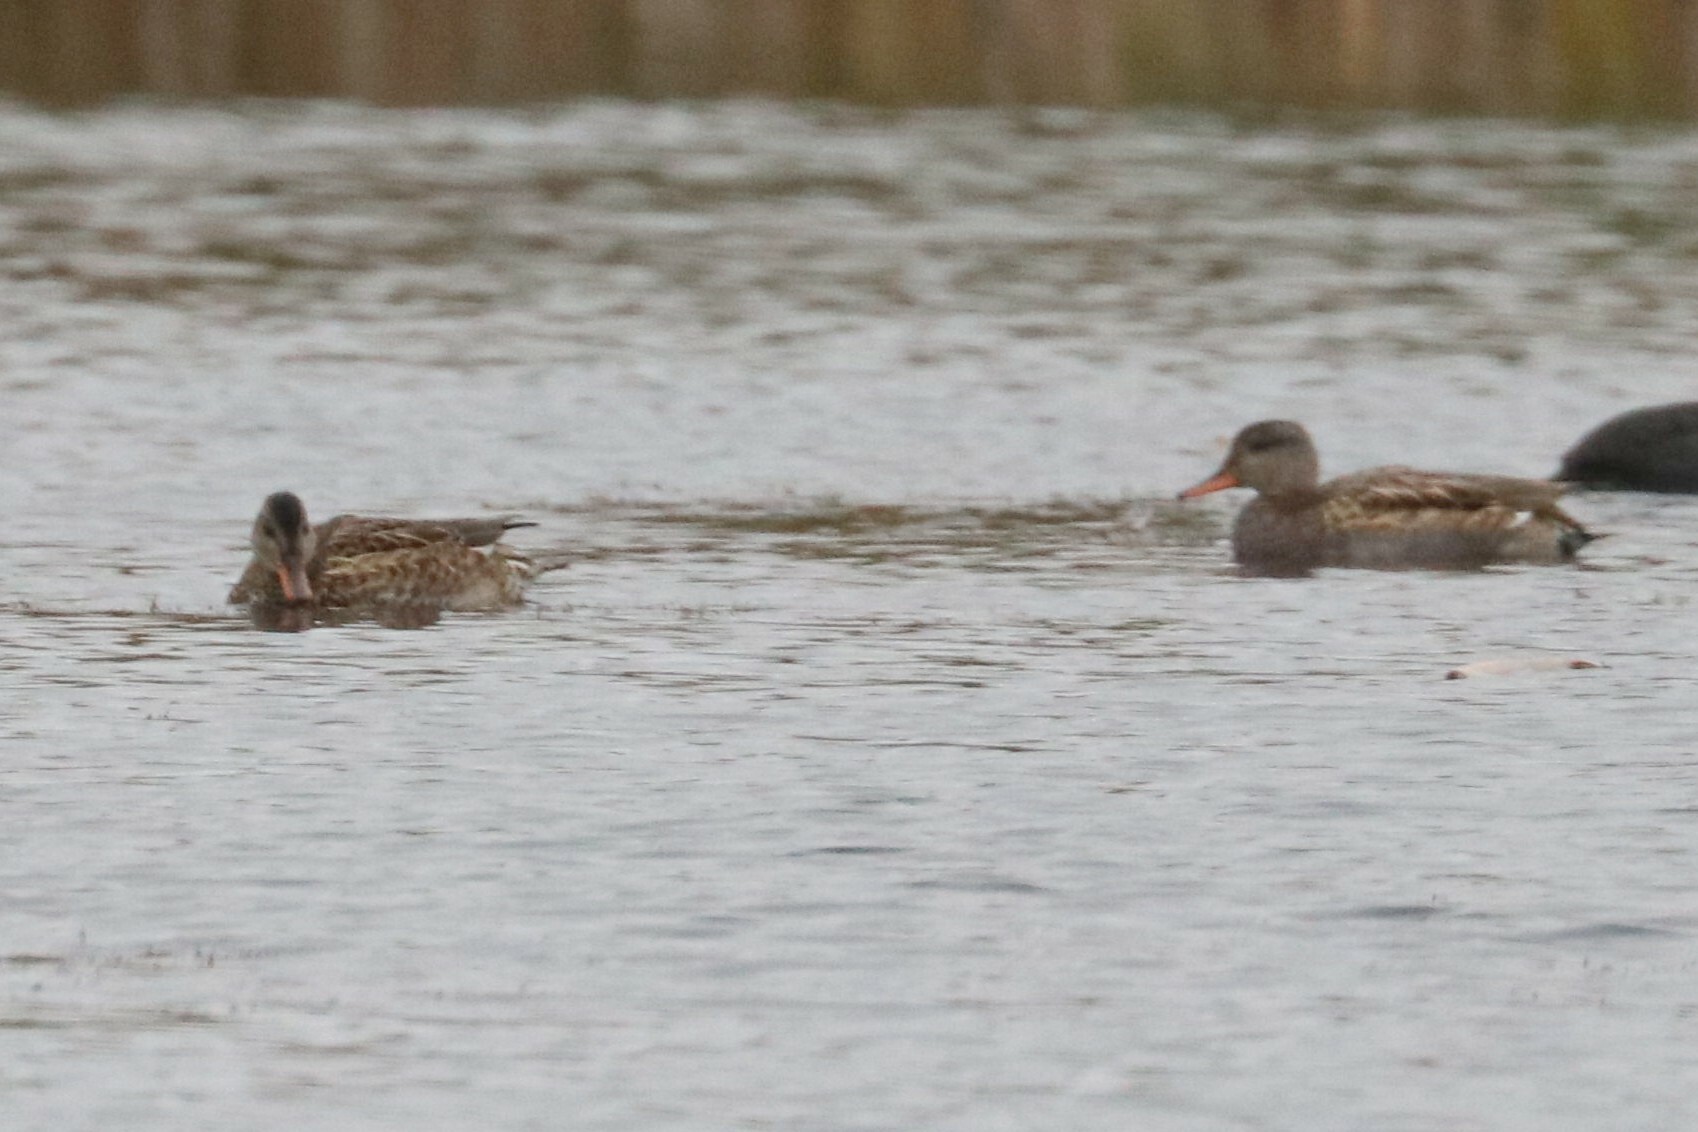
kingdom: Animalia
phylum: Chordata
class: Aves
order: Anseriformes
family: Anatidae
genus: Mareca
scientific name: Mareca strepera
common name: Gadwall
